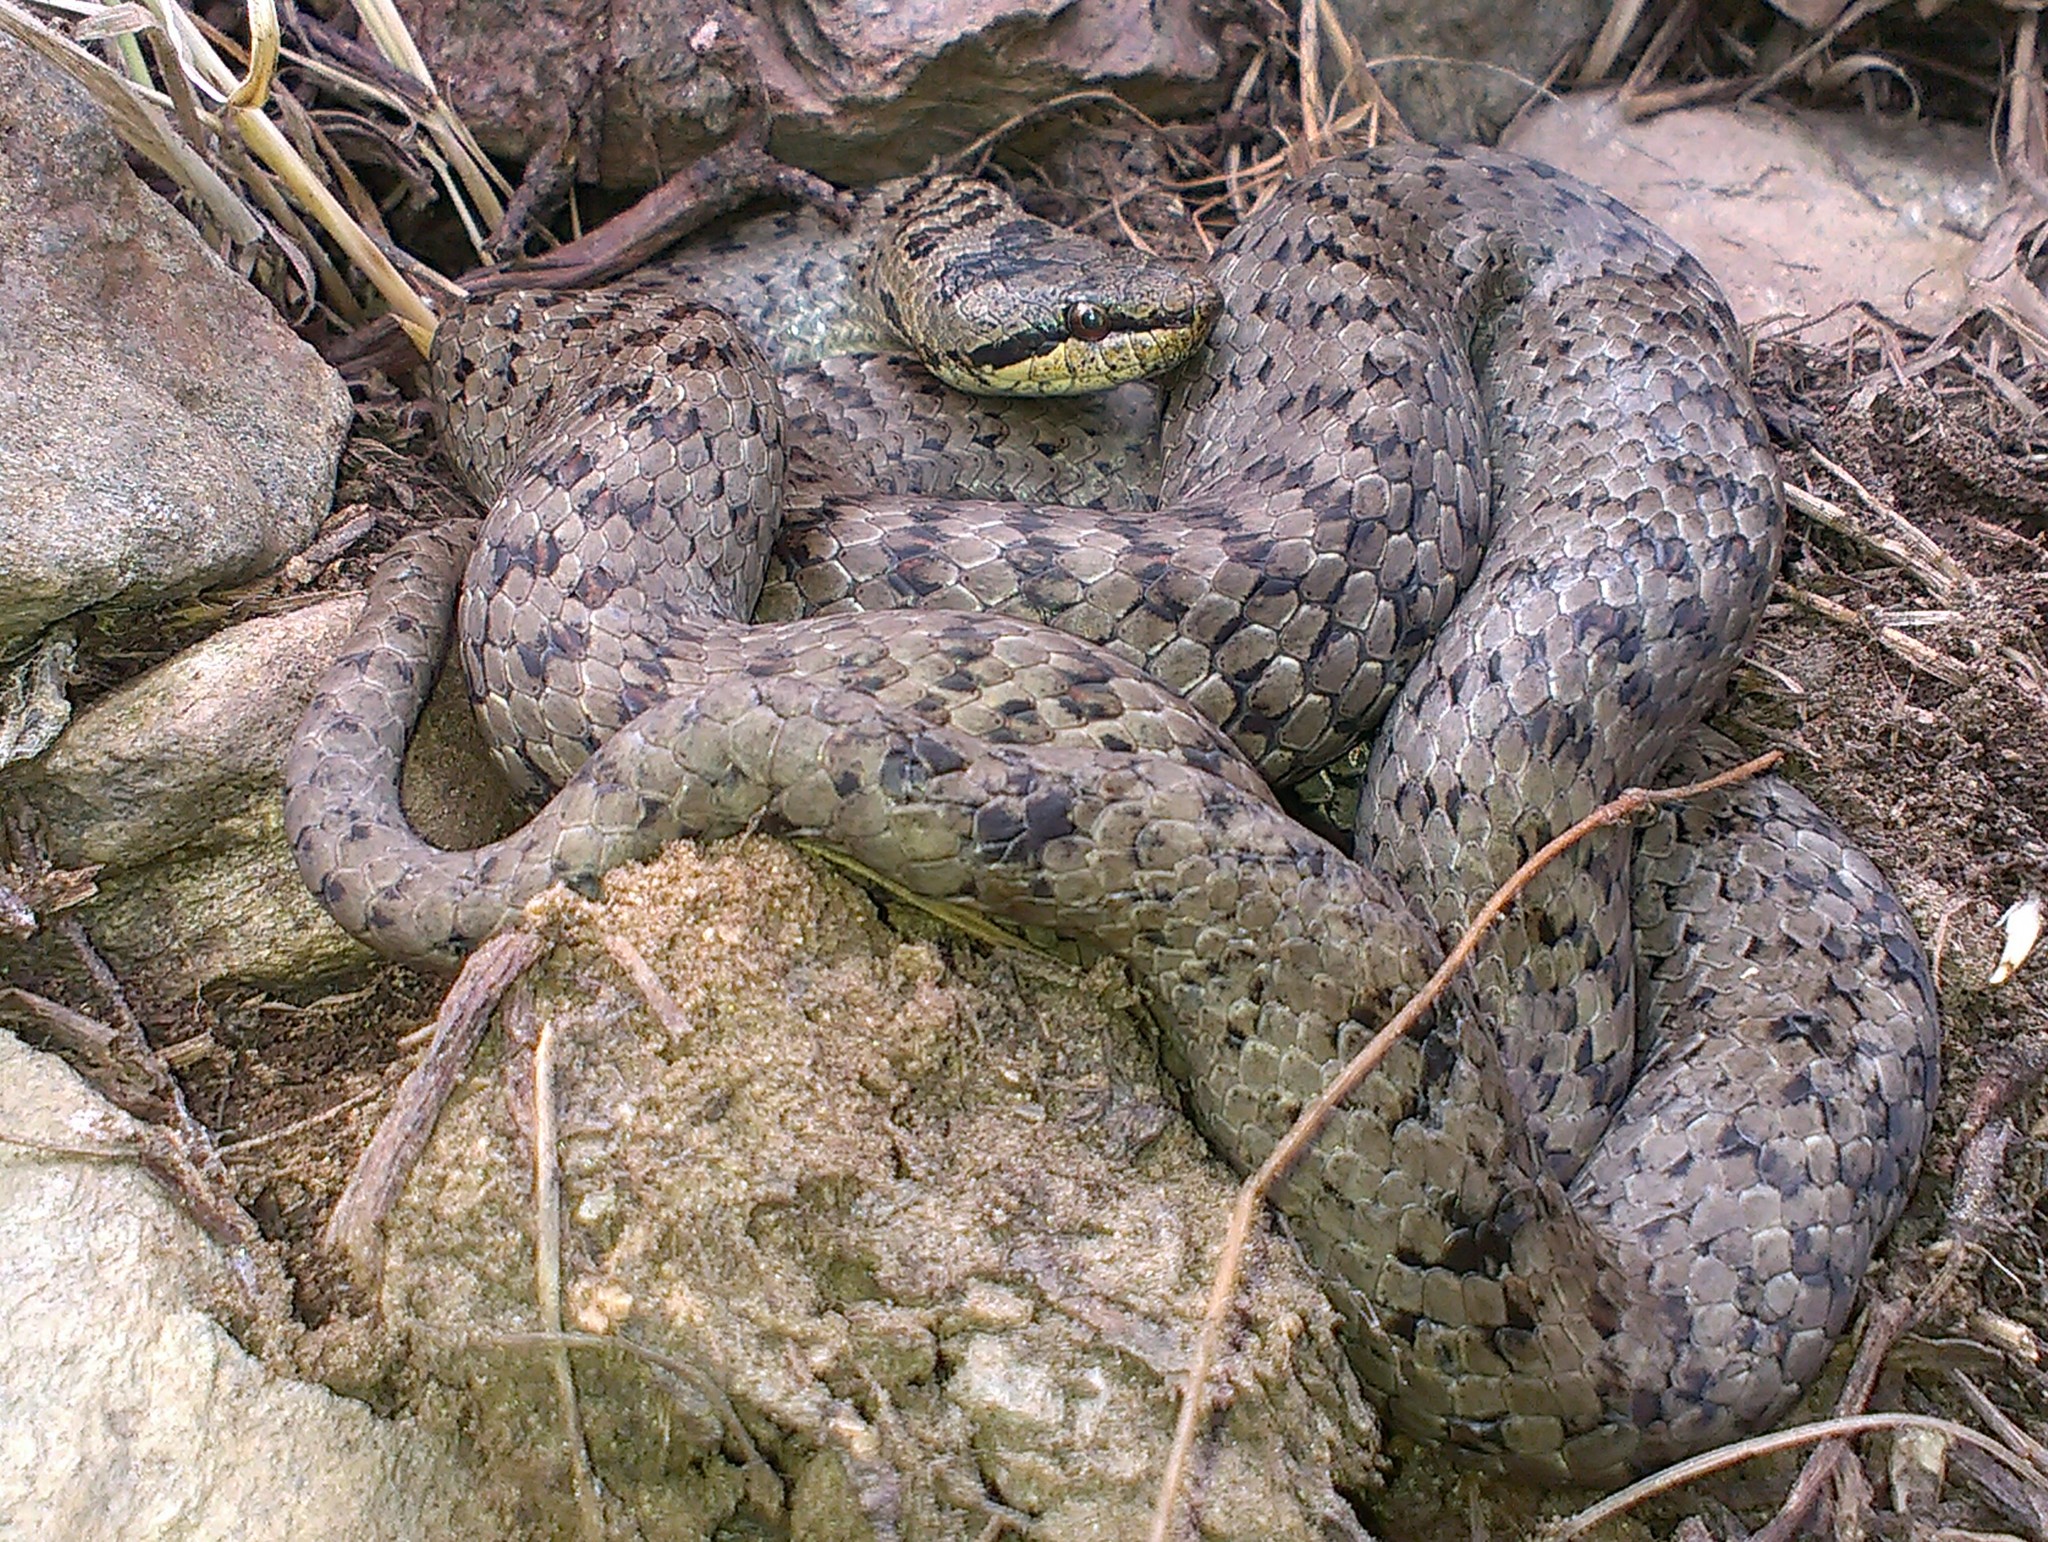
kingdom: Animalia
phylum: Chordata
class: Squamata
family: Colubridae
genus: Coronella
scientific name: Coronella austriaca
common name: Smooth snake
